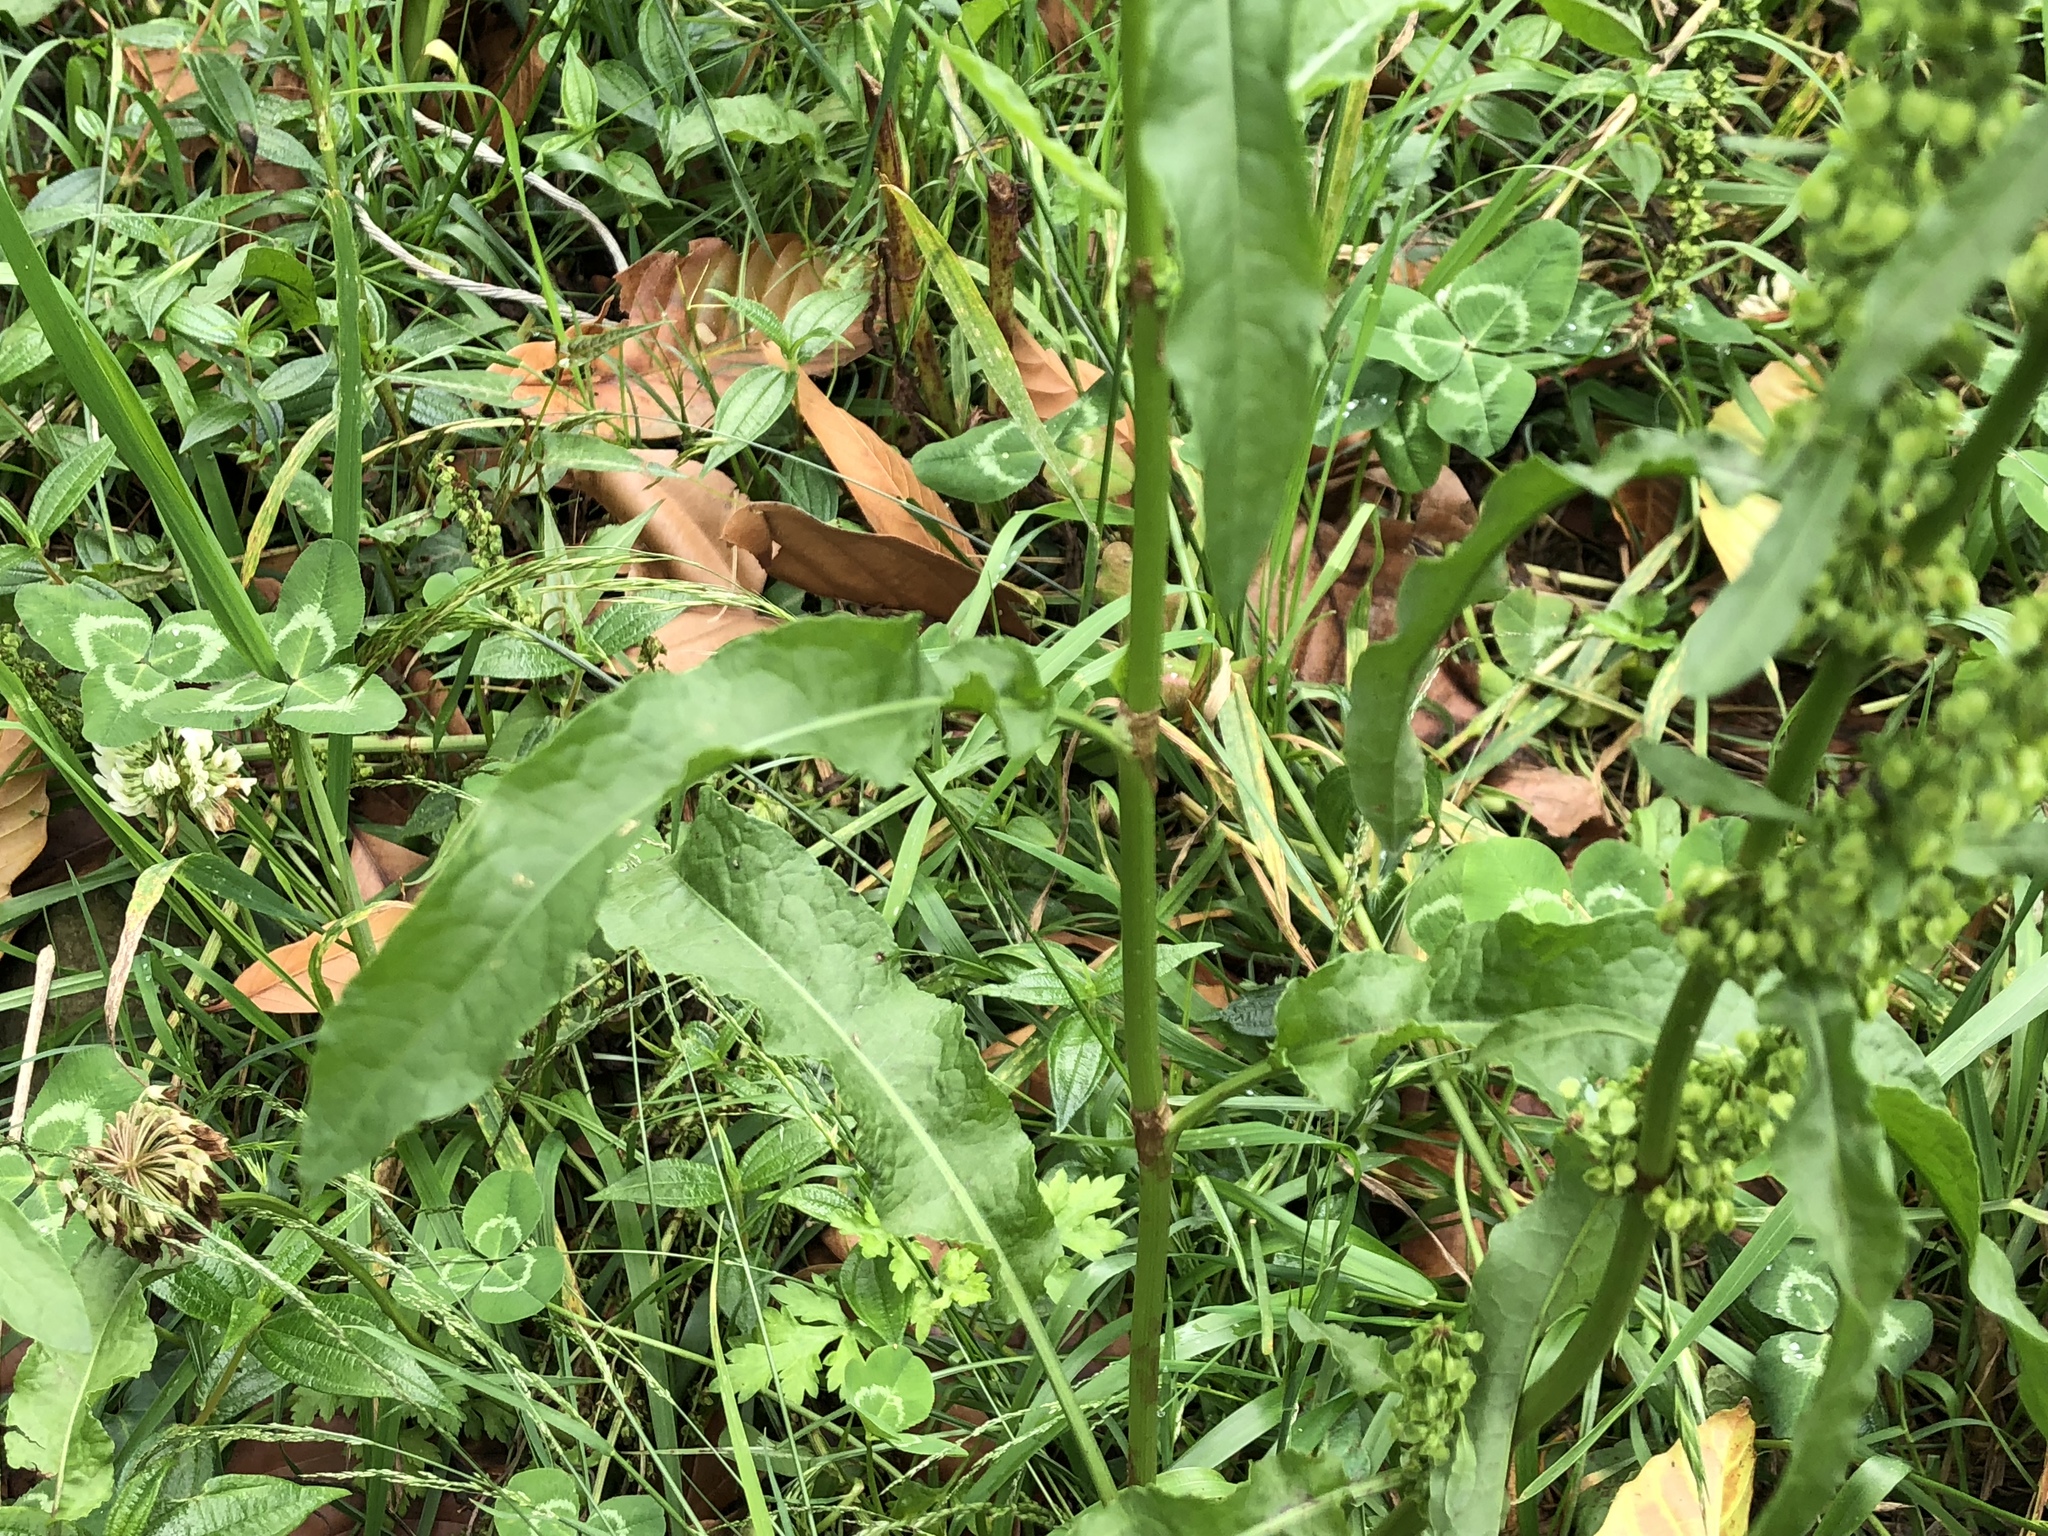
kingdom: Plantae
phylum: Tracheophyta
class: Liliopsida
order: Poales
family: Poaceae
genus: Bromus
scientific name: Bromus catharticus
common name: Rescuegrass
